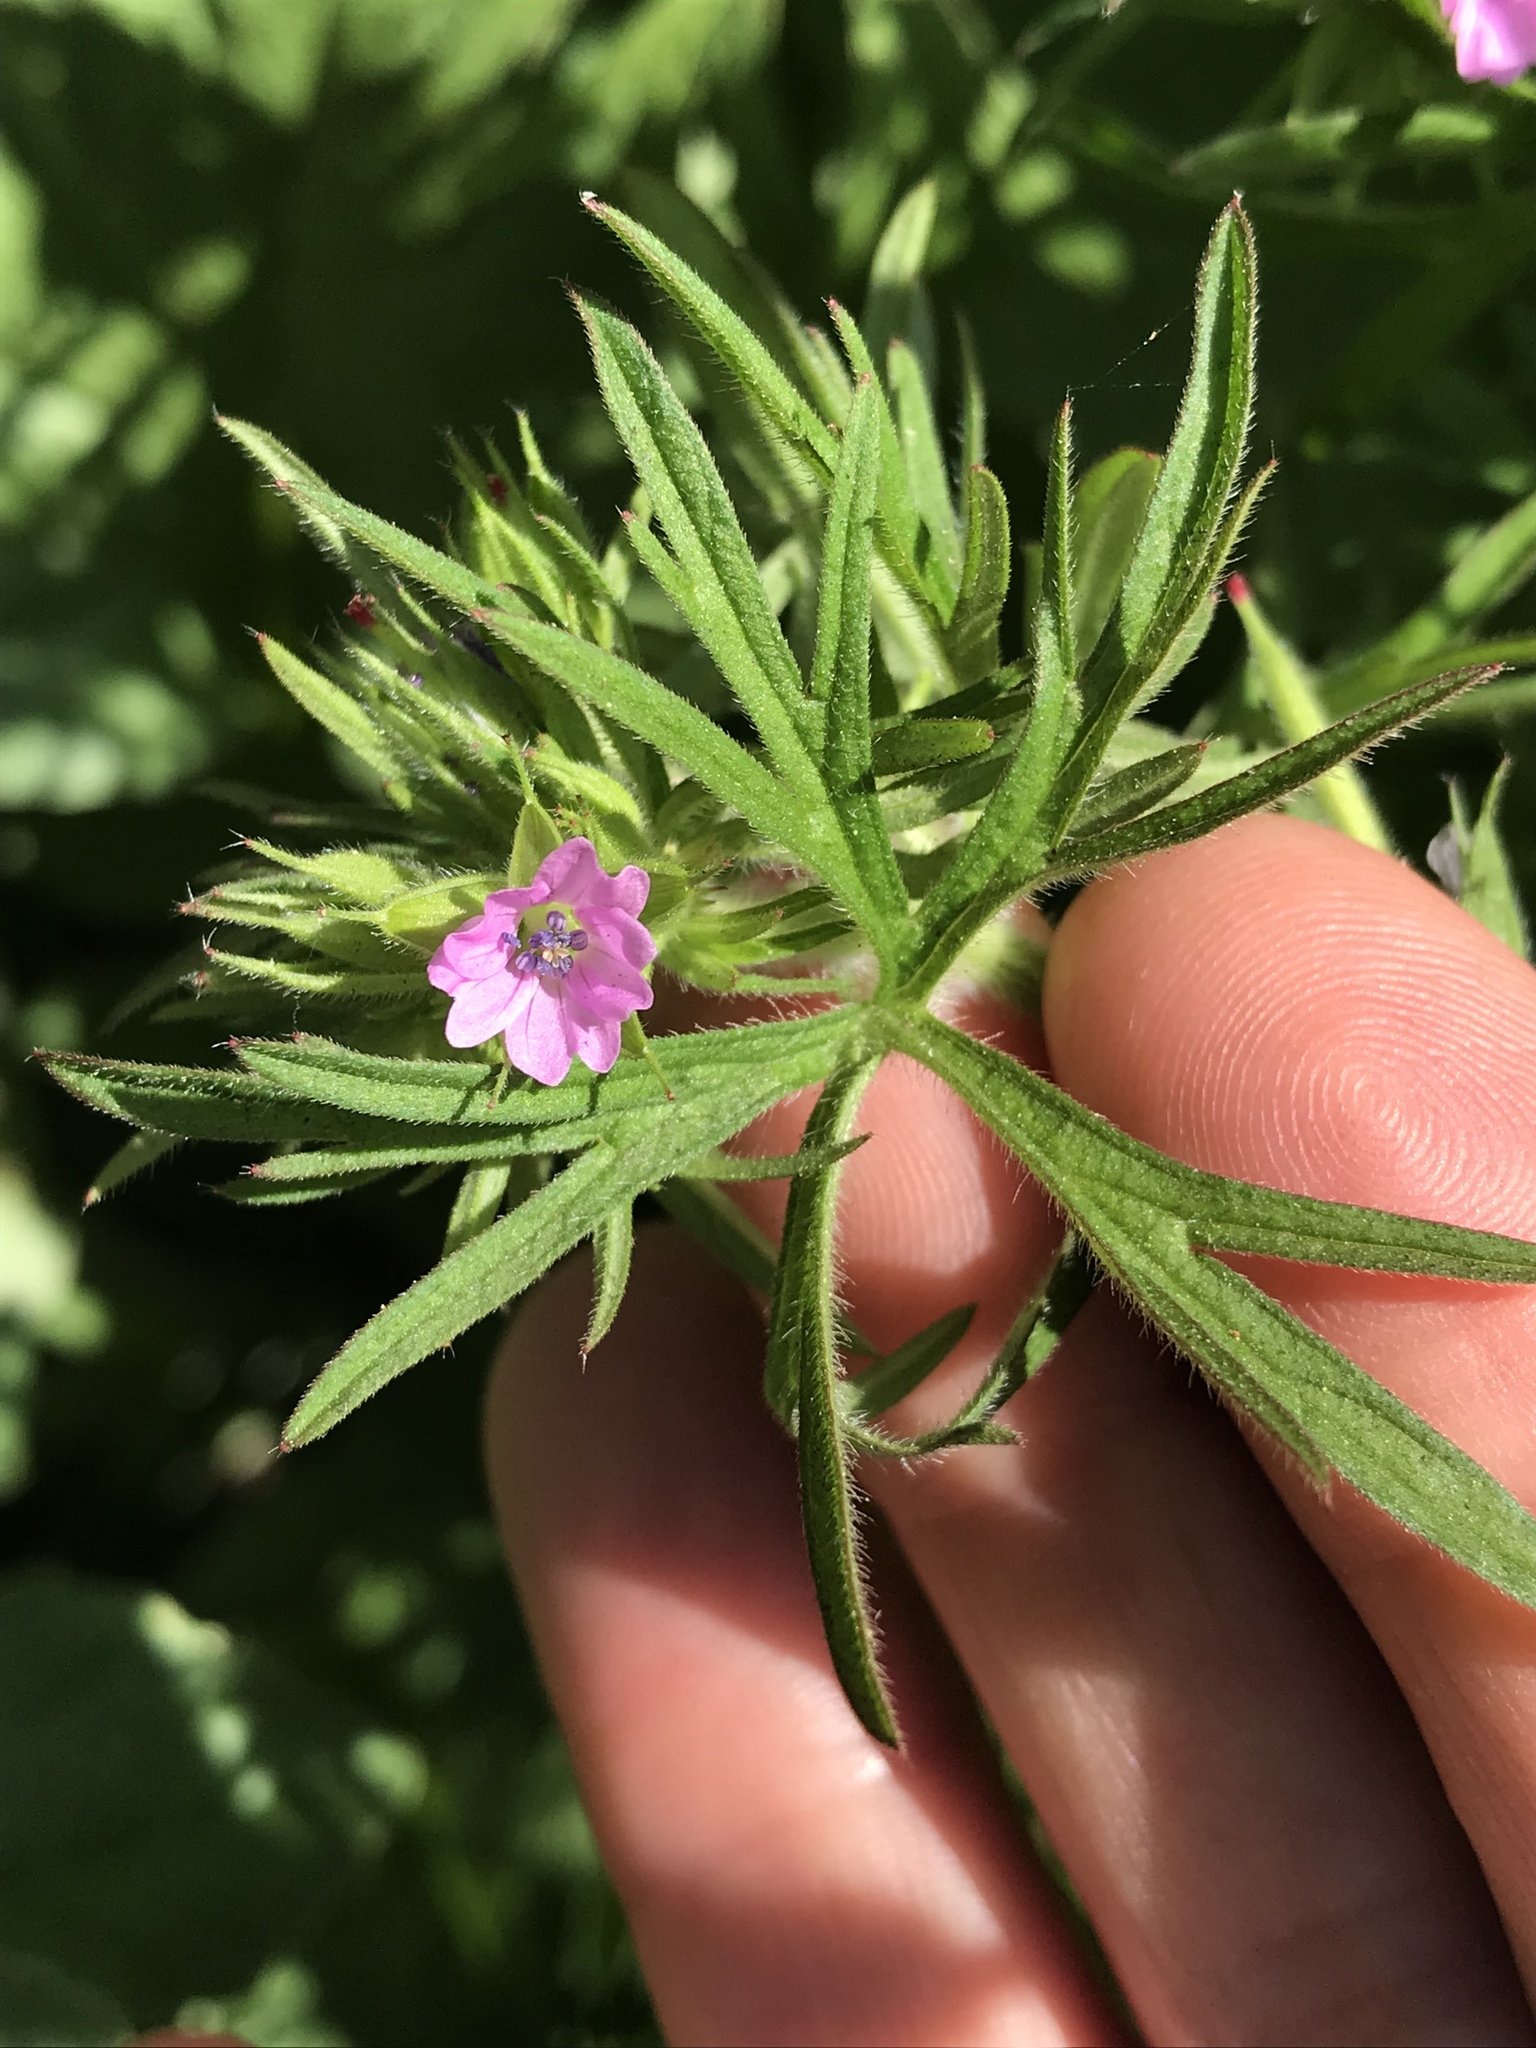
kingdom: Plantae
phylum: Tracheophyta
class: Magnoliopsida
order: Geraniales
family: Geraniaceae
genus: Geranium
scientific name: Geranium dissectum
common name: Cut-leaved crane's-bill
